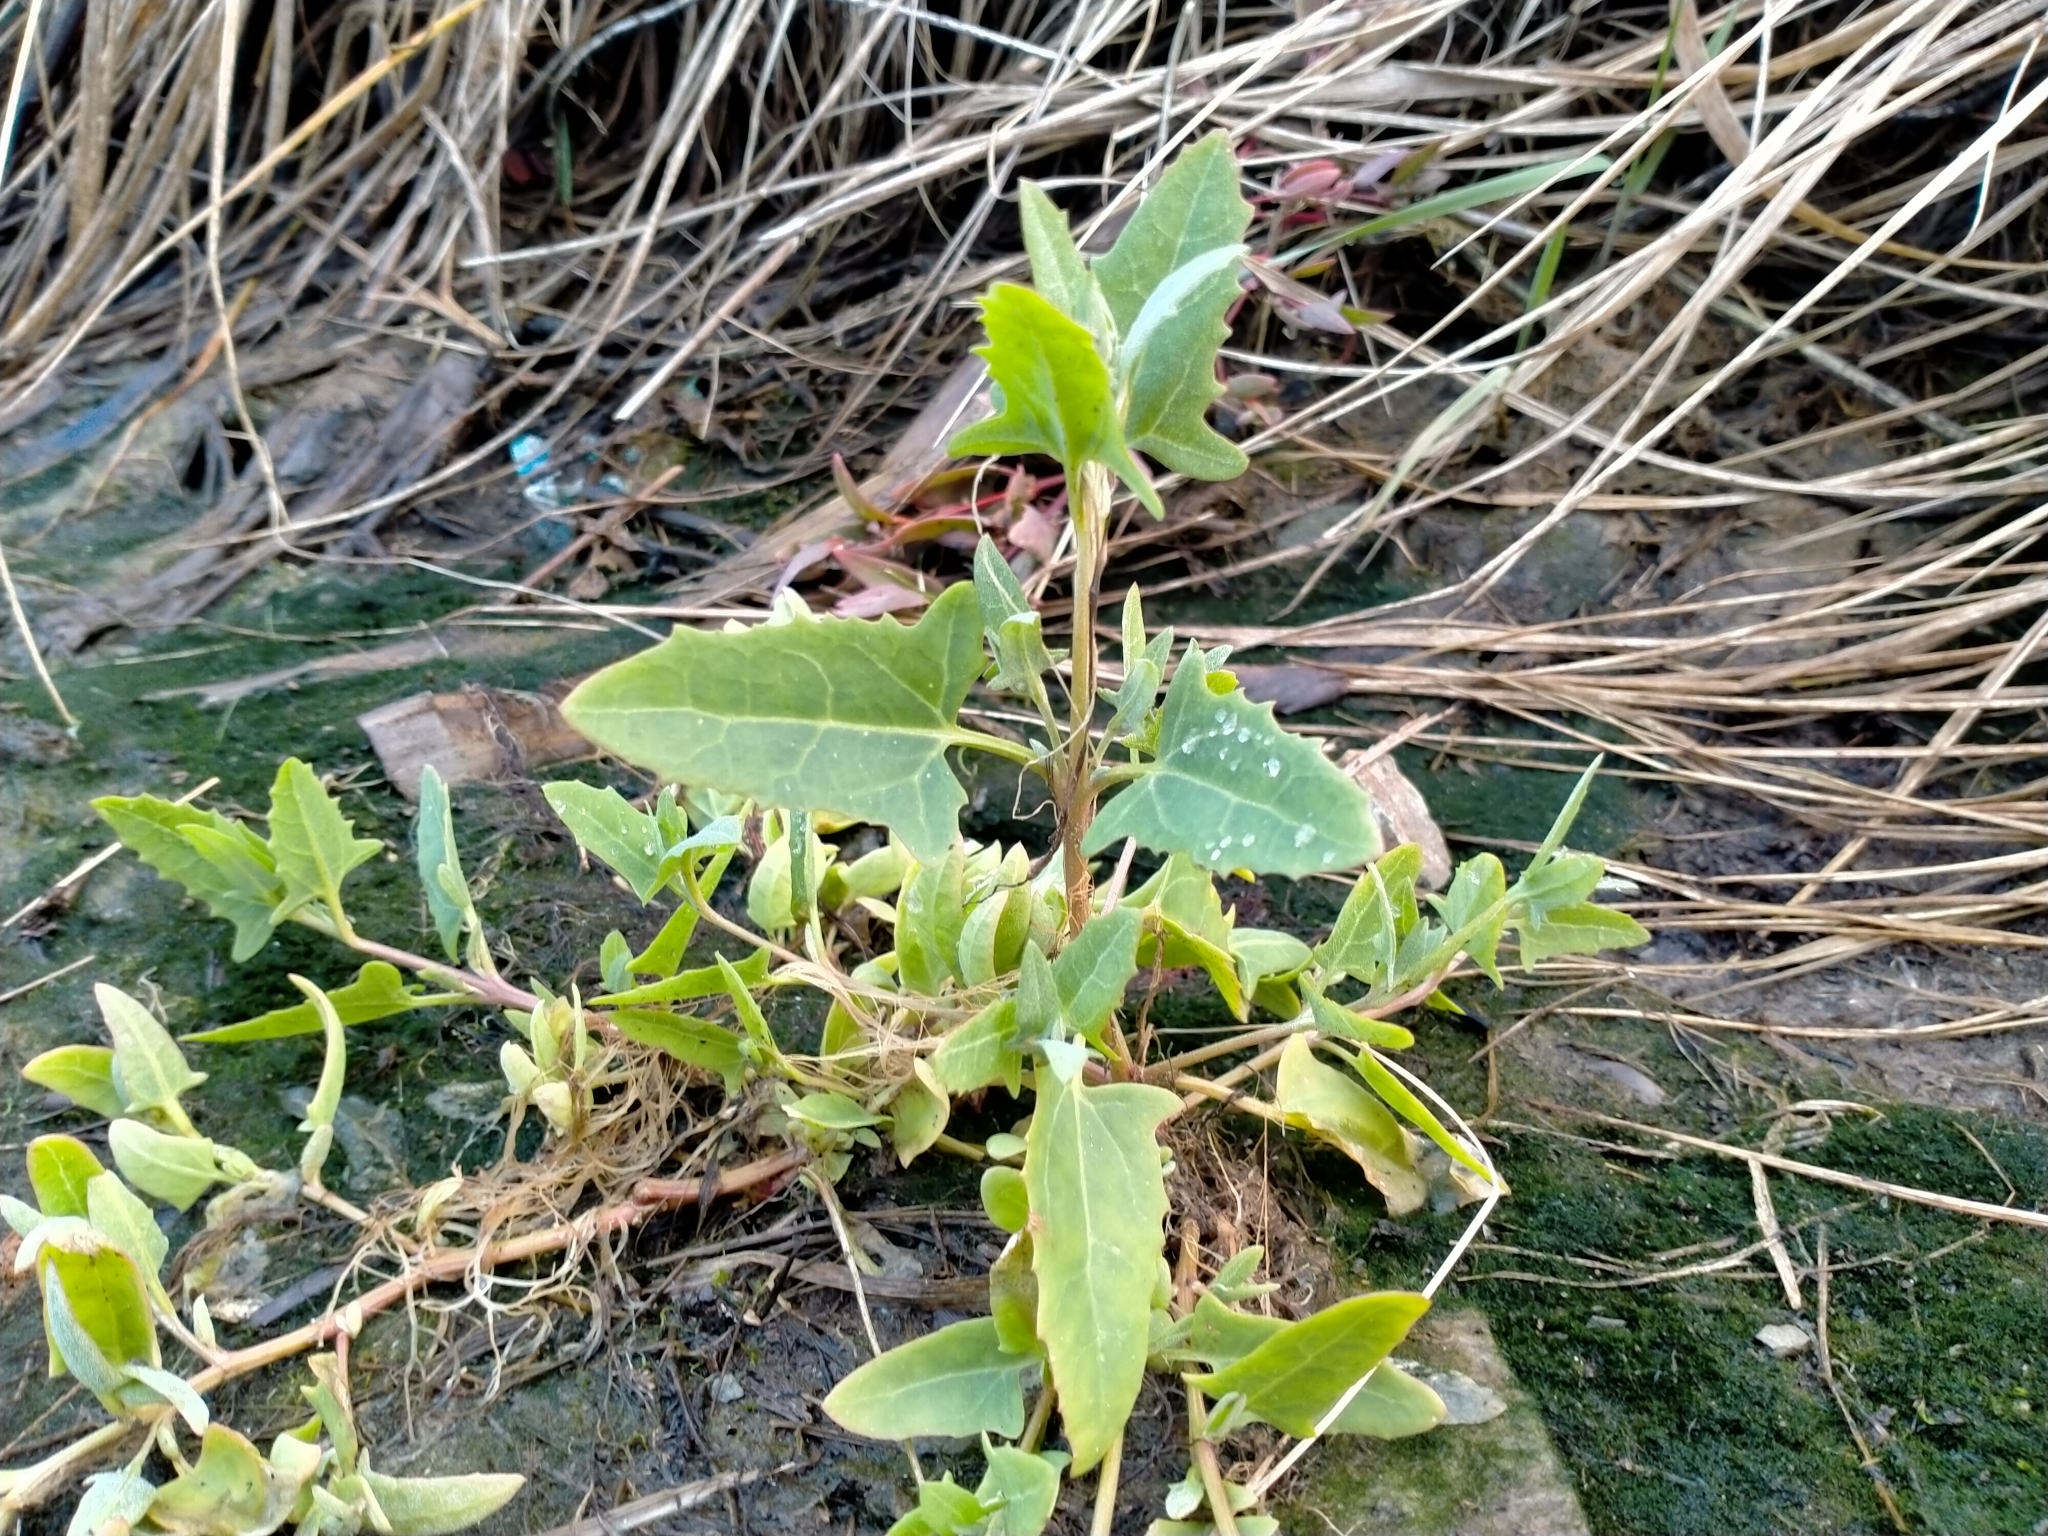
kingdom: Plantae
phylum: Tracheophyta
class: Magnoliopsida
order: Caryophyllales
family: Amaranthaceae
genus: Atriplex
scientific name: Atriplex prostrata
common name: Spear-leaved orache
